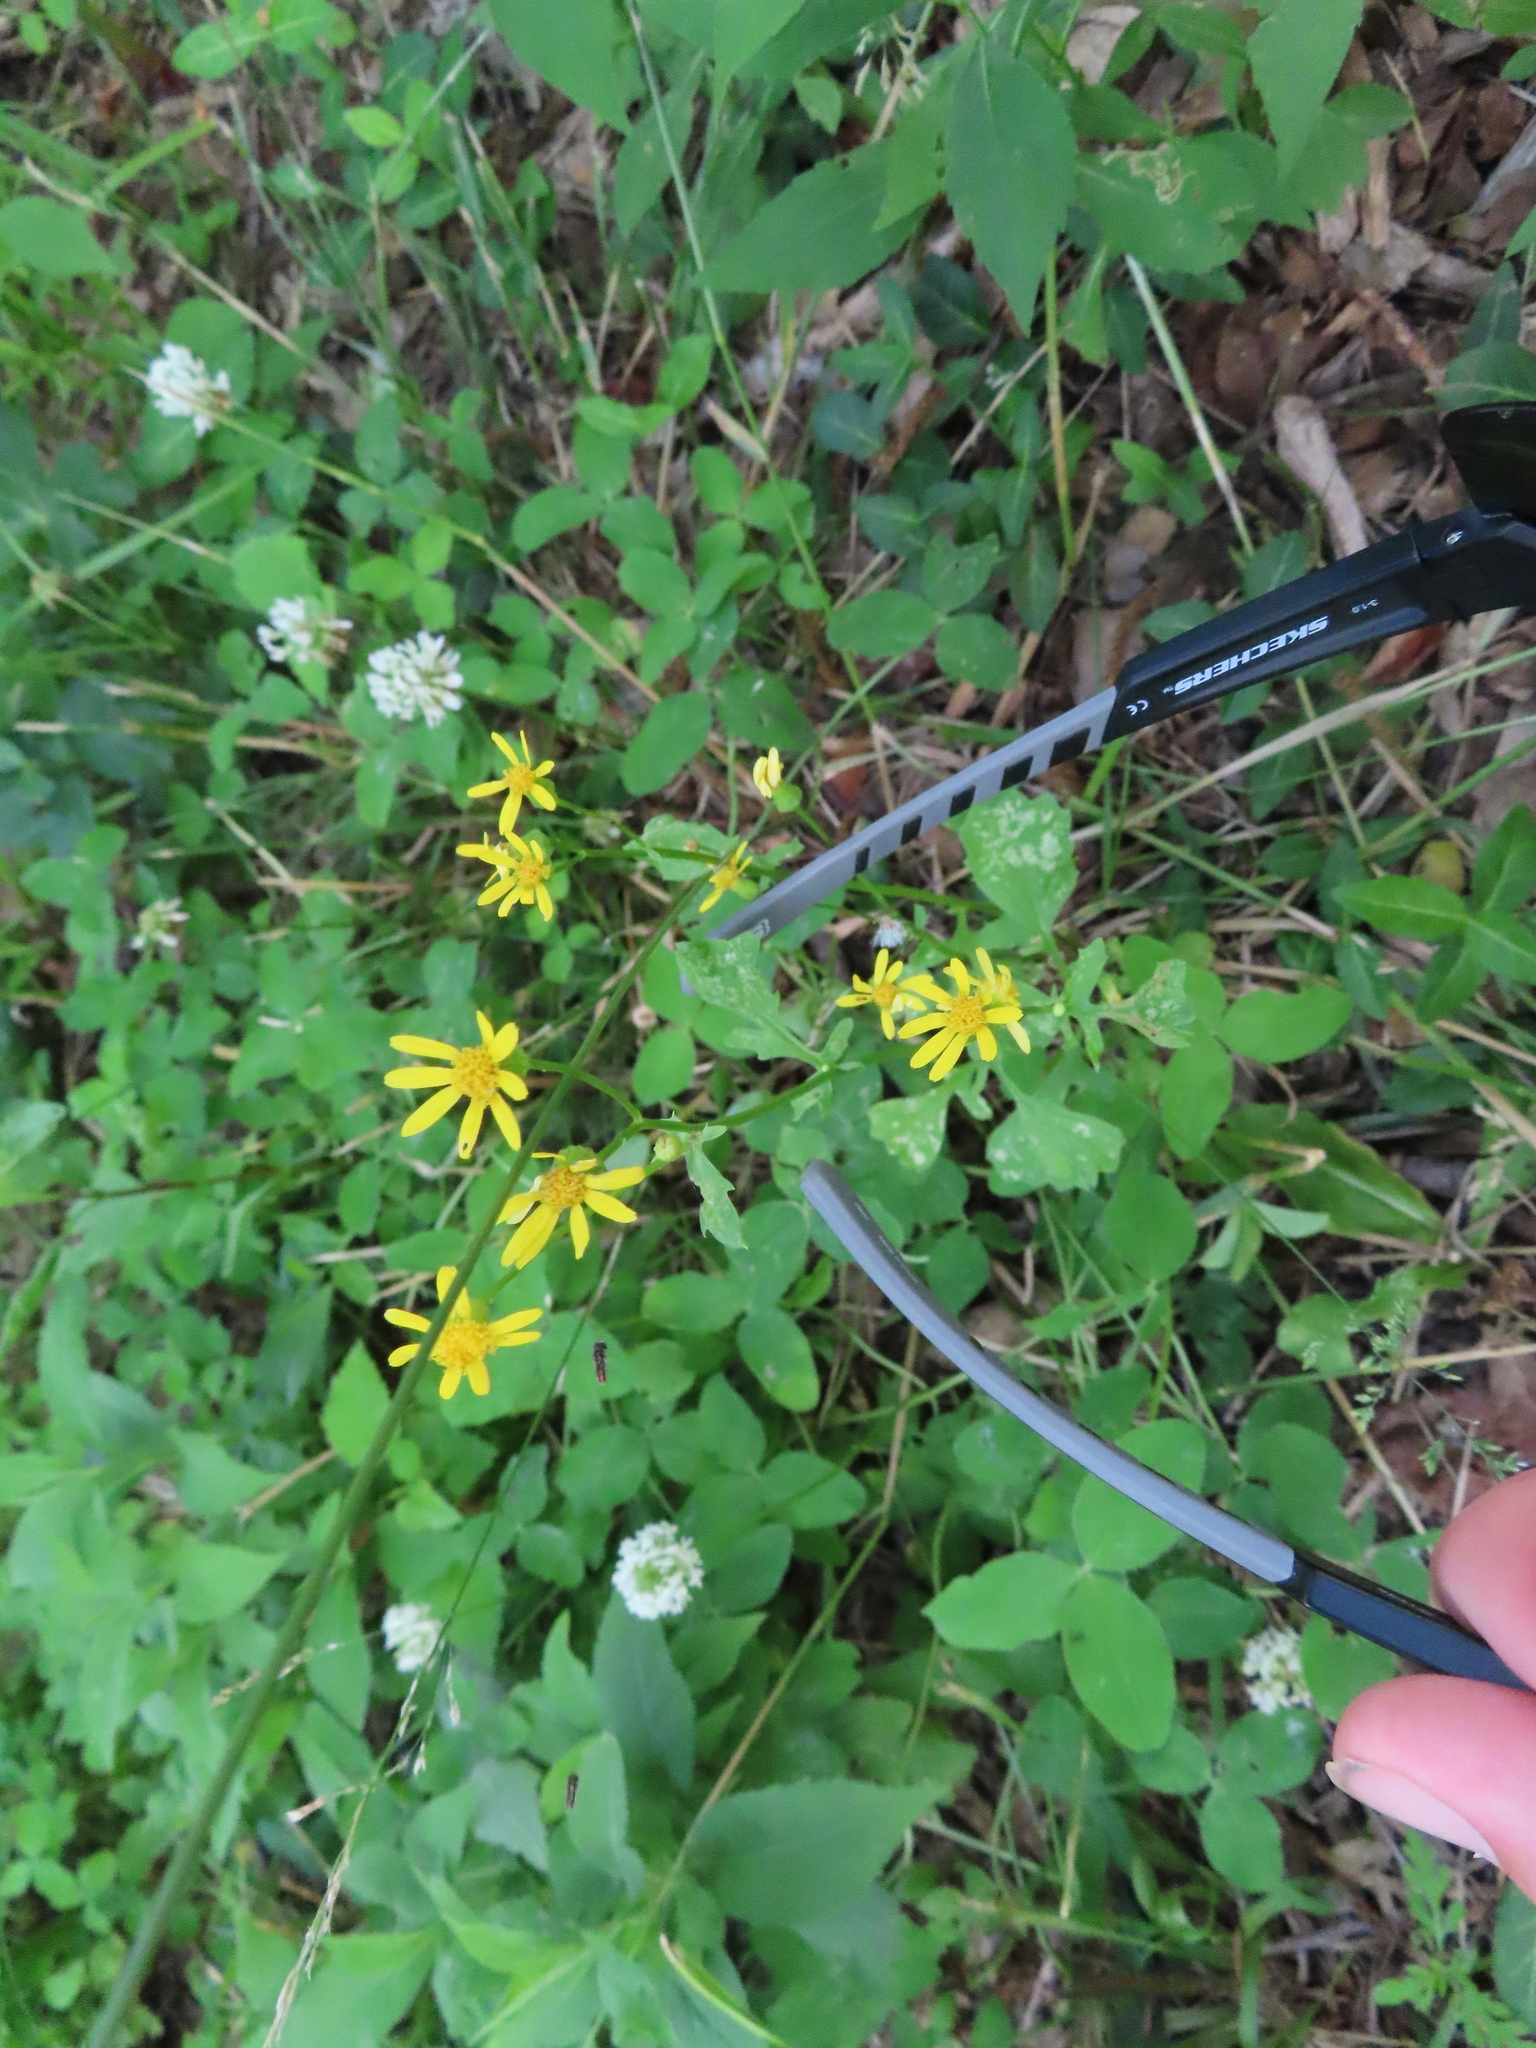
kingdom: Plantae
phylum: Tracheophyta
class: Magnoliopsida
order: Asterales
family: Asteraceae
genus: Packera
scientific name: Packera glabella
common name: Butterweed
